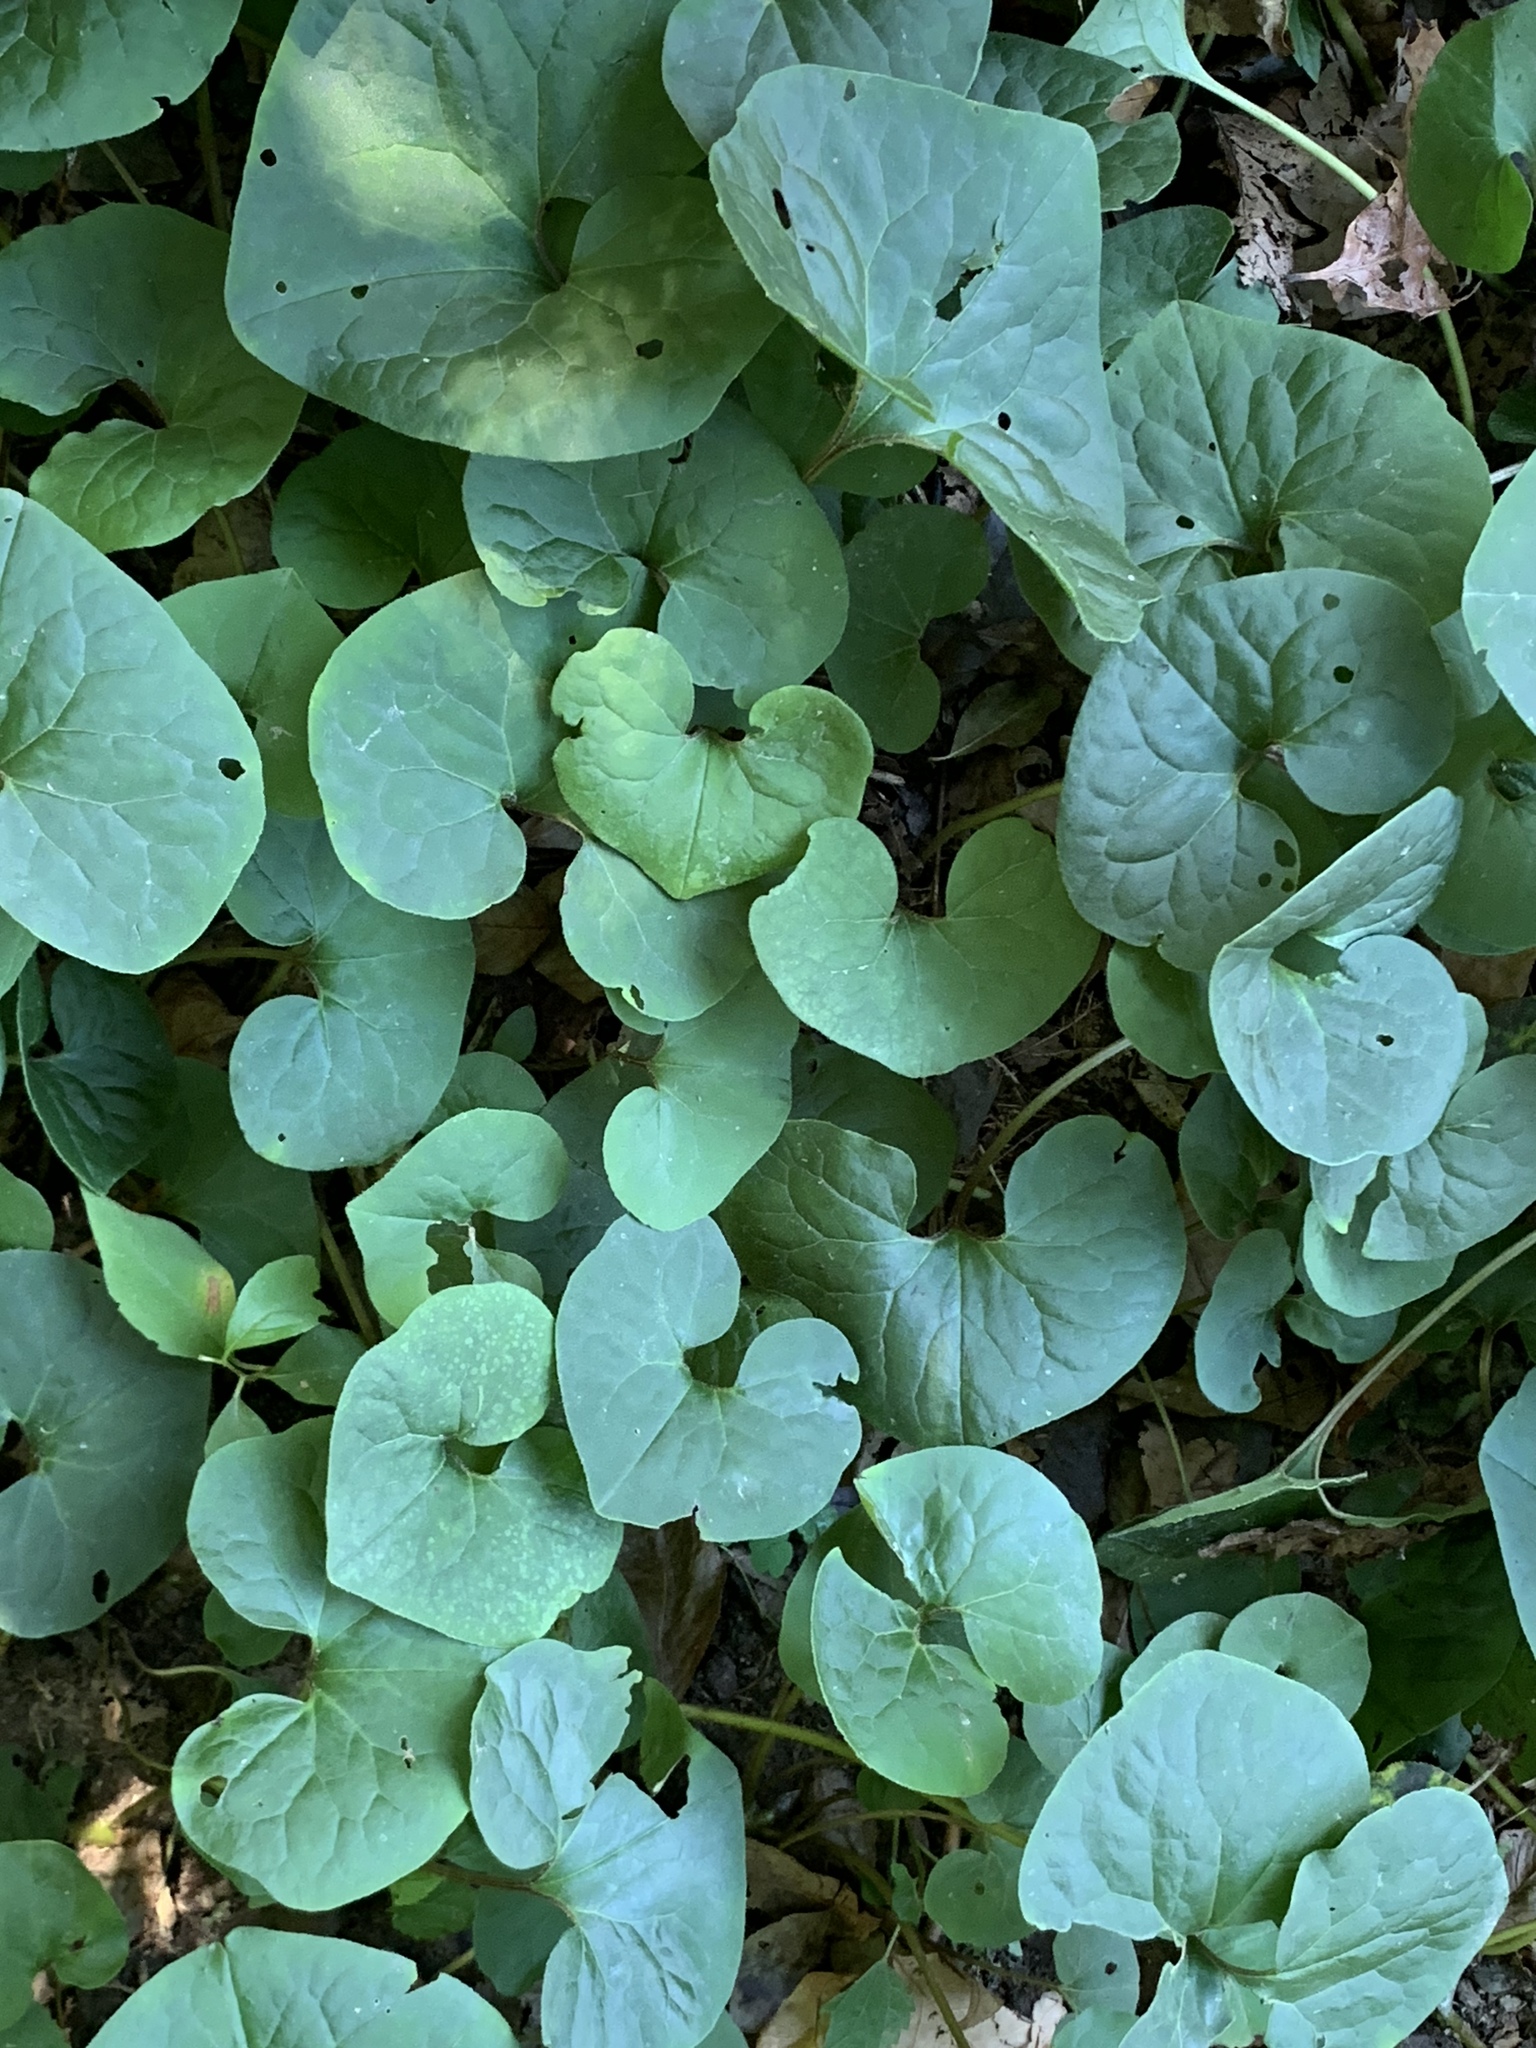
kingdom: Plantae
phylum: Tracheophyta
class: Magnoliopsida
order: Piperales
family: Aristolochiaceae
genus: Asarum
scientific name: Asarum canadense
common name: Wild ginger
